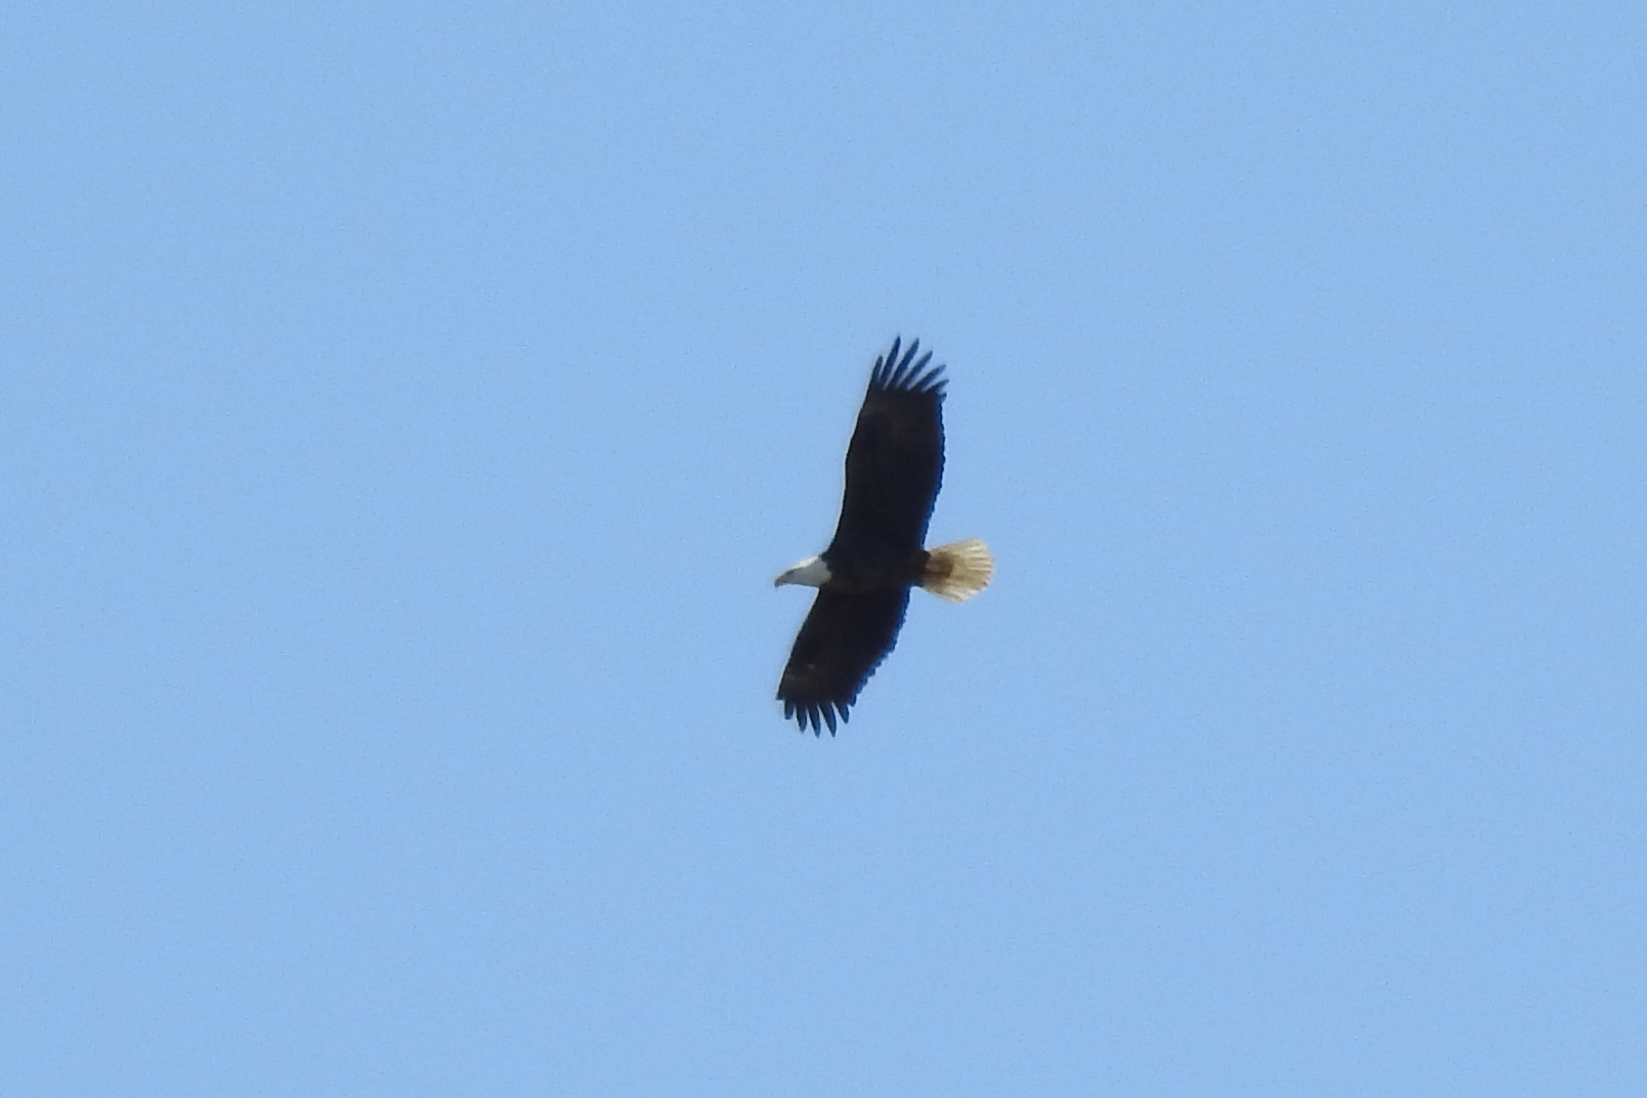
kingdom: Animalia
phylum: Chordata
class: Aves
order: Accipitriformes
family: Accipitridae
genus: Haliaeetus
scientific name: Haliaeetus leucocephalus
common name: Bald eagle
